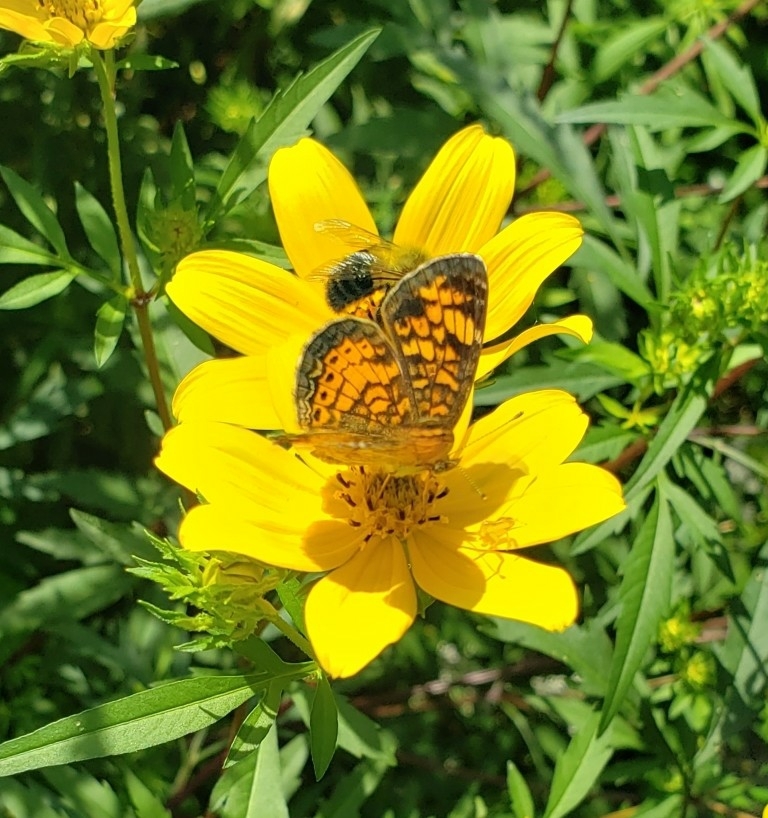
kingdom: Animalia
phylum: Arthropoda
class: Insecta
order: Lepidoptera
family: Nymphalidae
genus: Phyciodes
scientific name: Phyciodes tharos
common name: Pearl crescent
